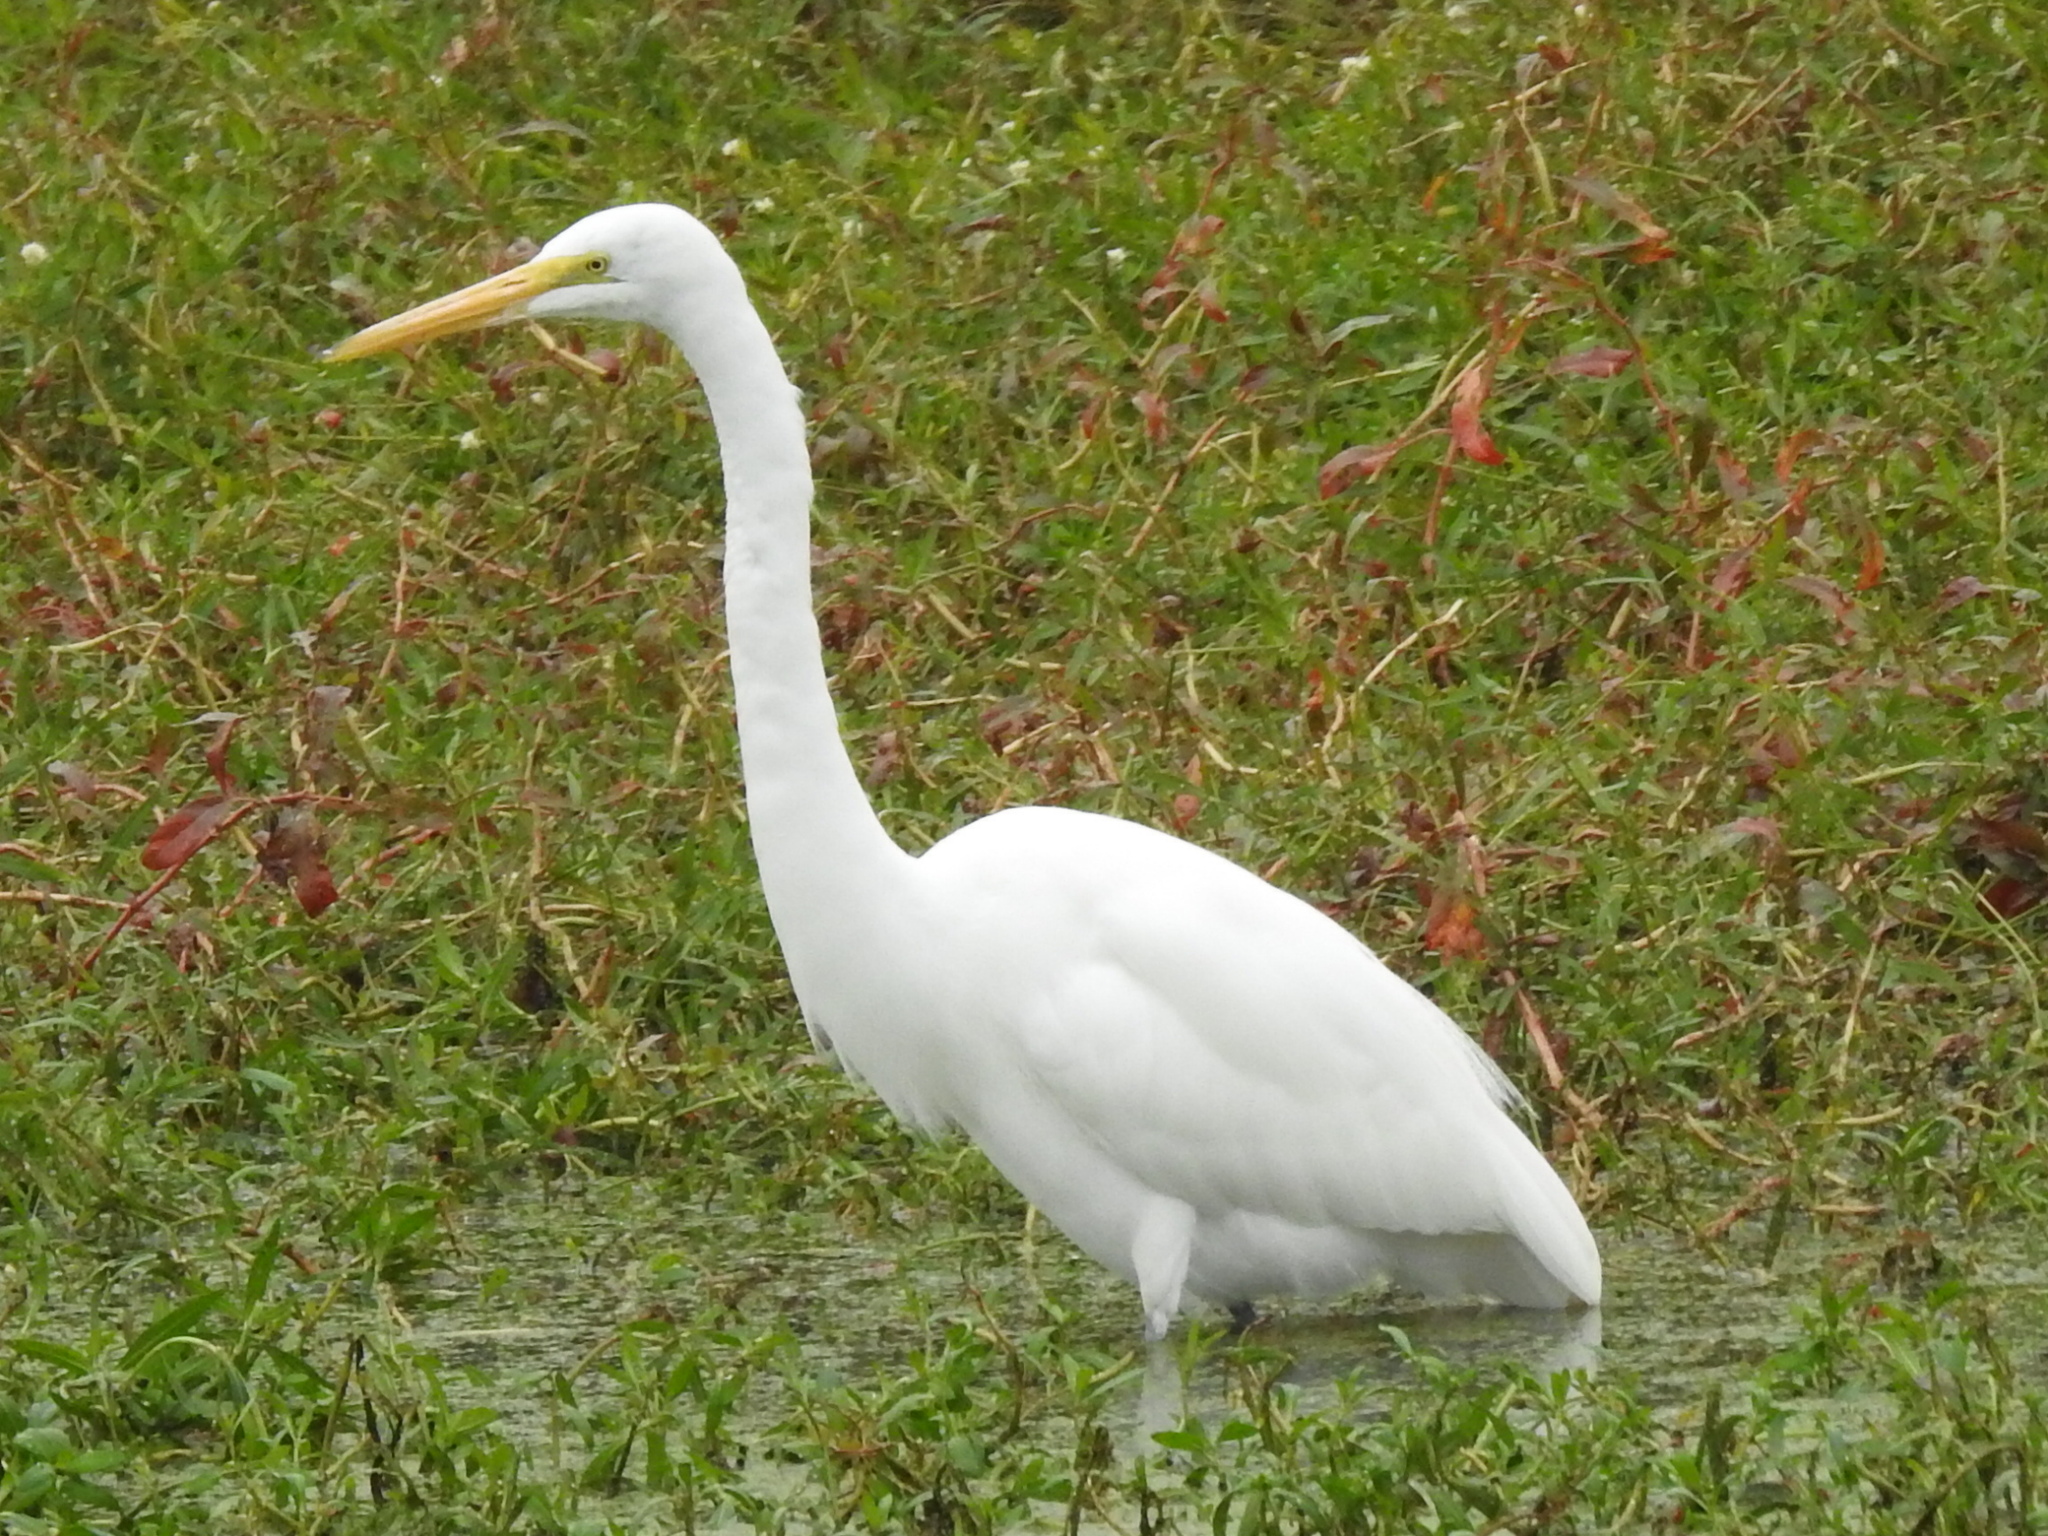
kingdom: Animalia
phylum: Chordata
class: Aves
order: Pelecaniformes
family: Ardeidae
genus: Ardea
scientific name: Ardea alba
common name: Great egret
